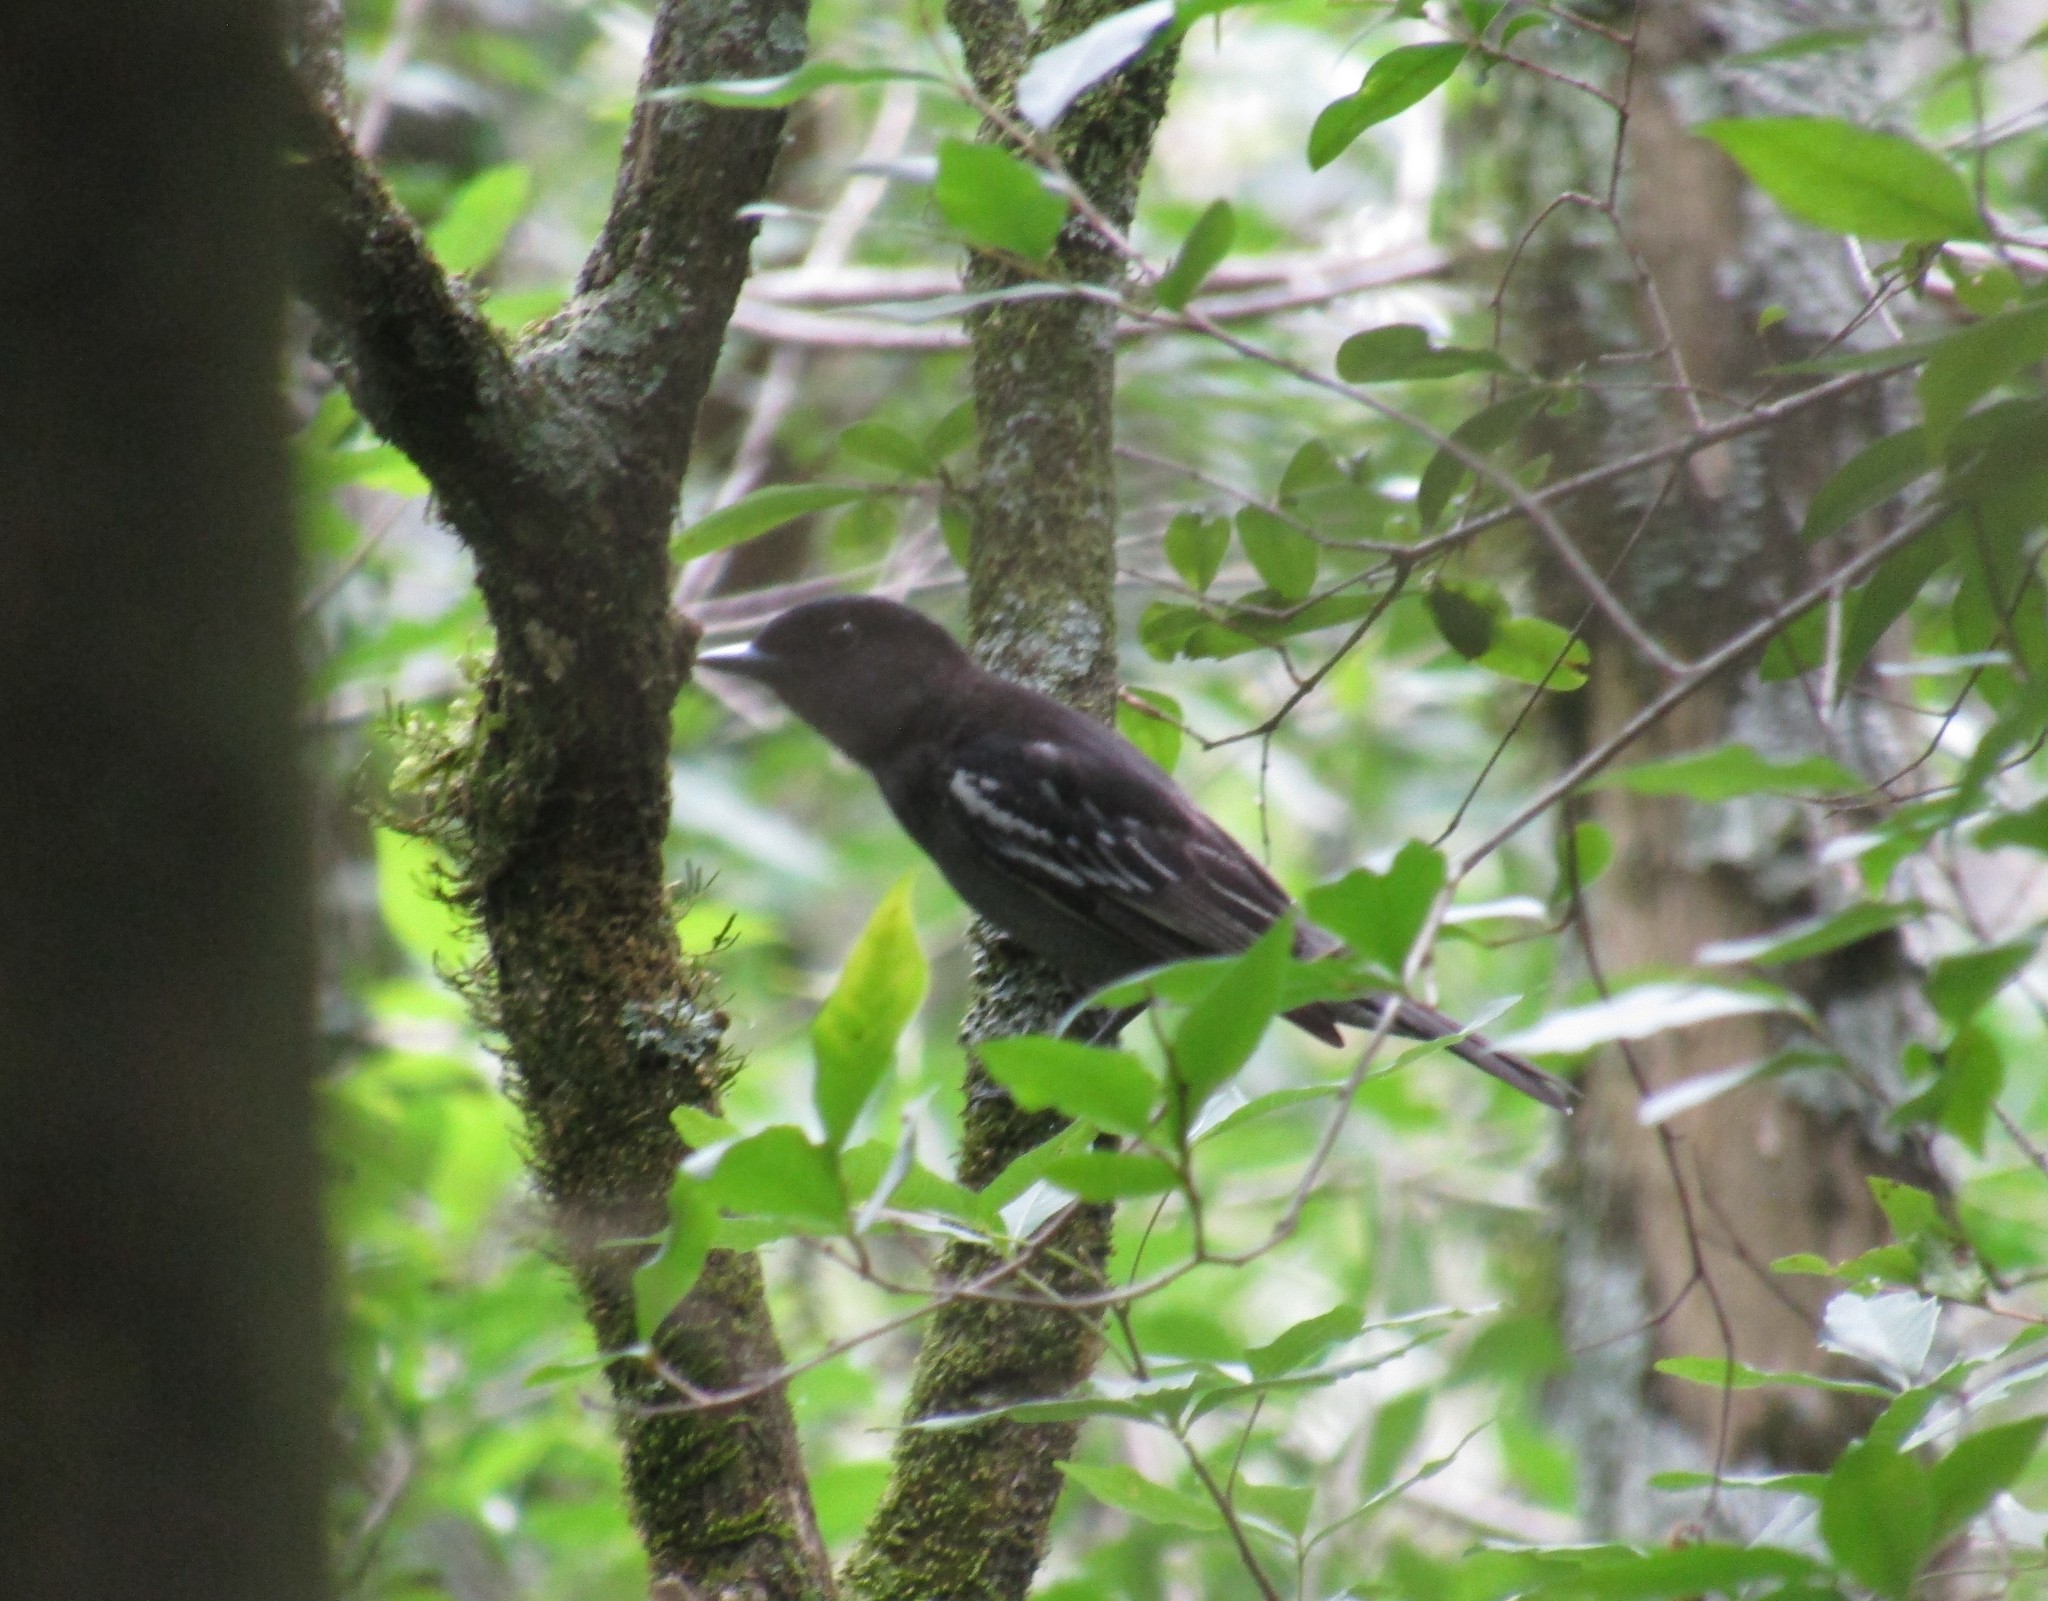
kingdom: Animalia
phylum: Chordata
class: Aves
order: Passeriformes
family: Cotingidae
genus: Pachyramphus
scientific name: Pachyramphus polychopterus
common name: White-winged becard
